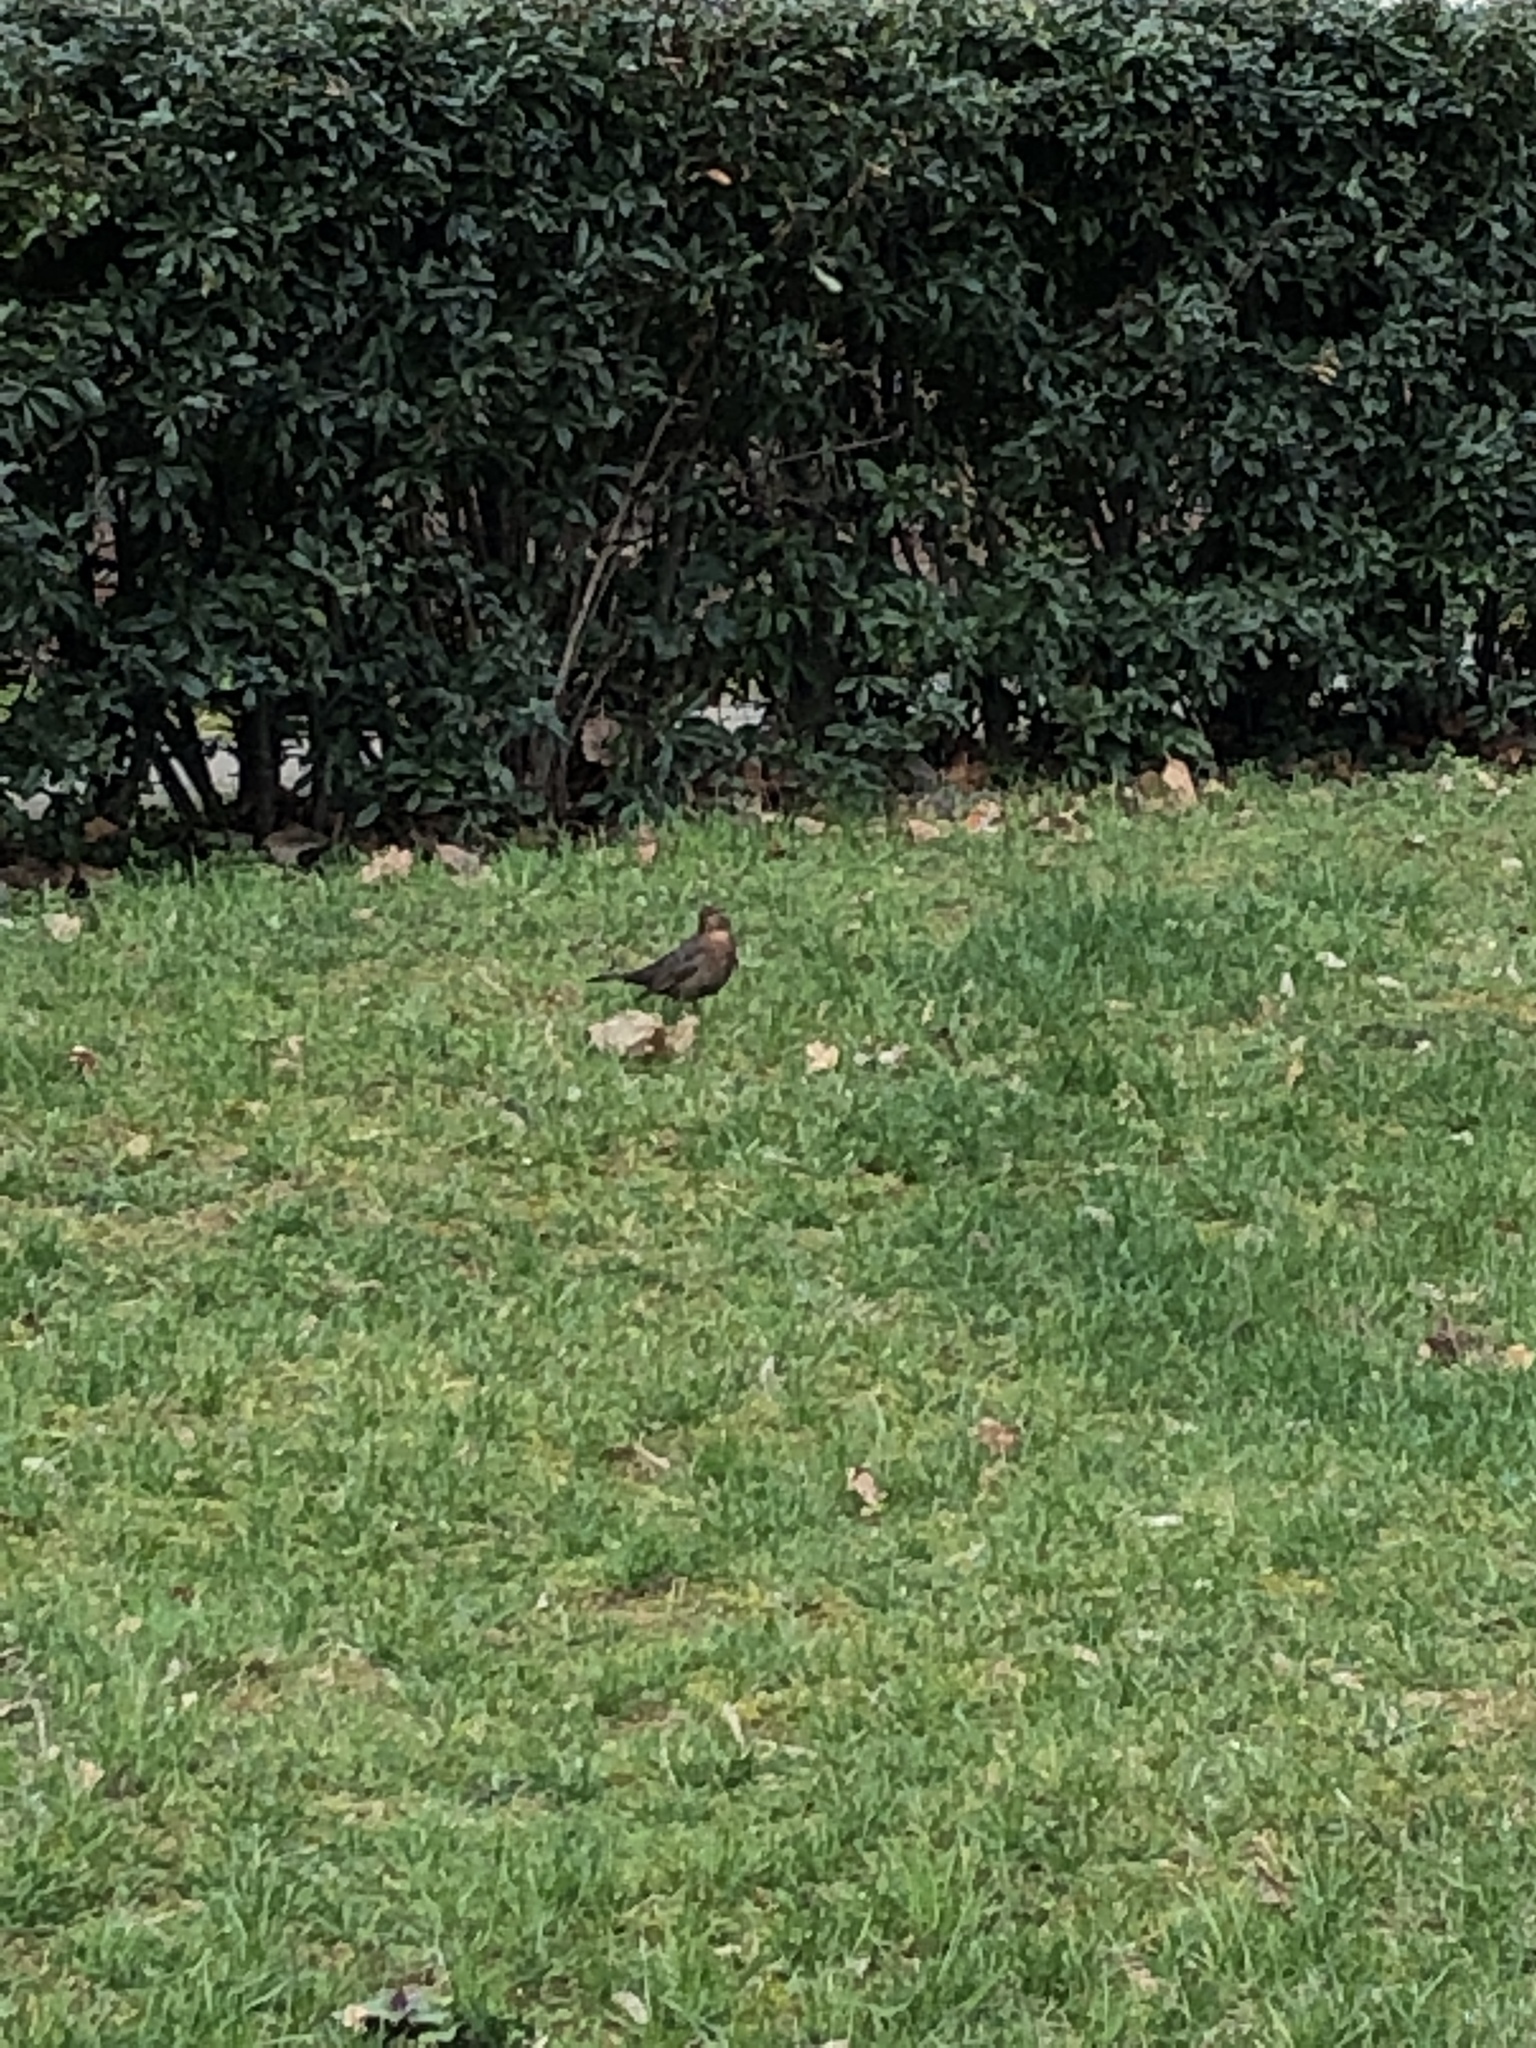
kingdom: Animalia
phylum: Chordata
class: Aves
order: Passeriformes
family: Turdidae
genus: Turdus
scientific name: Turdus merula
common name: Common blackbird
